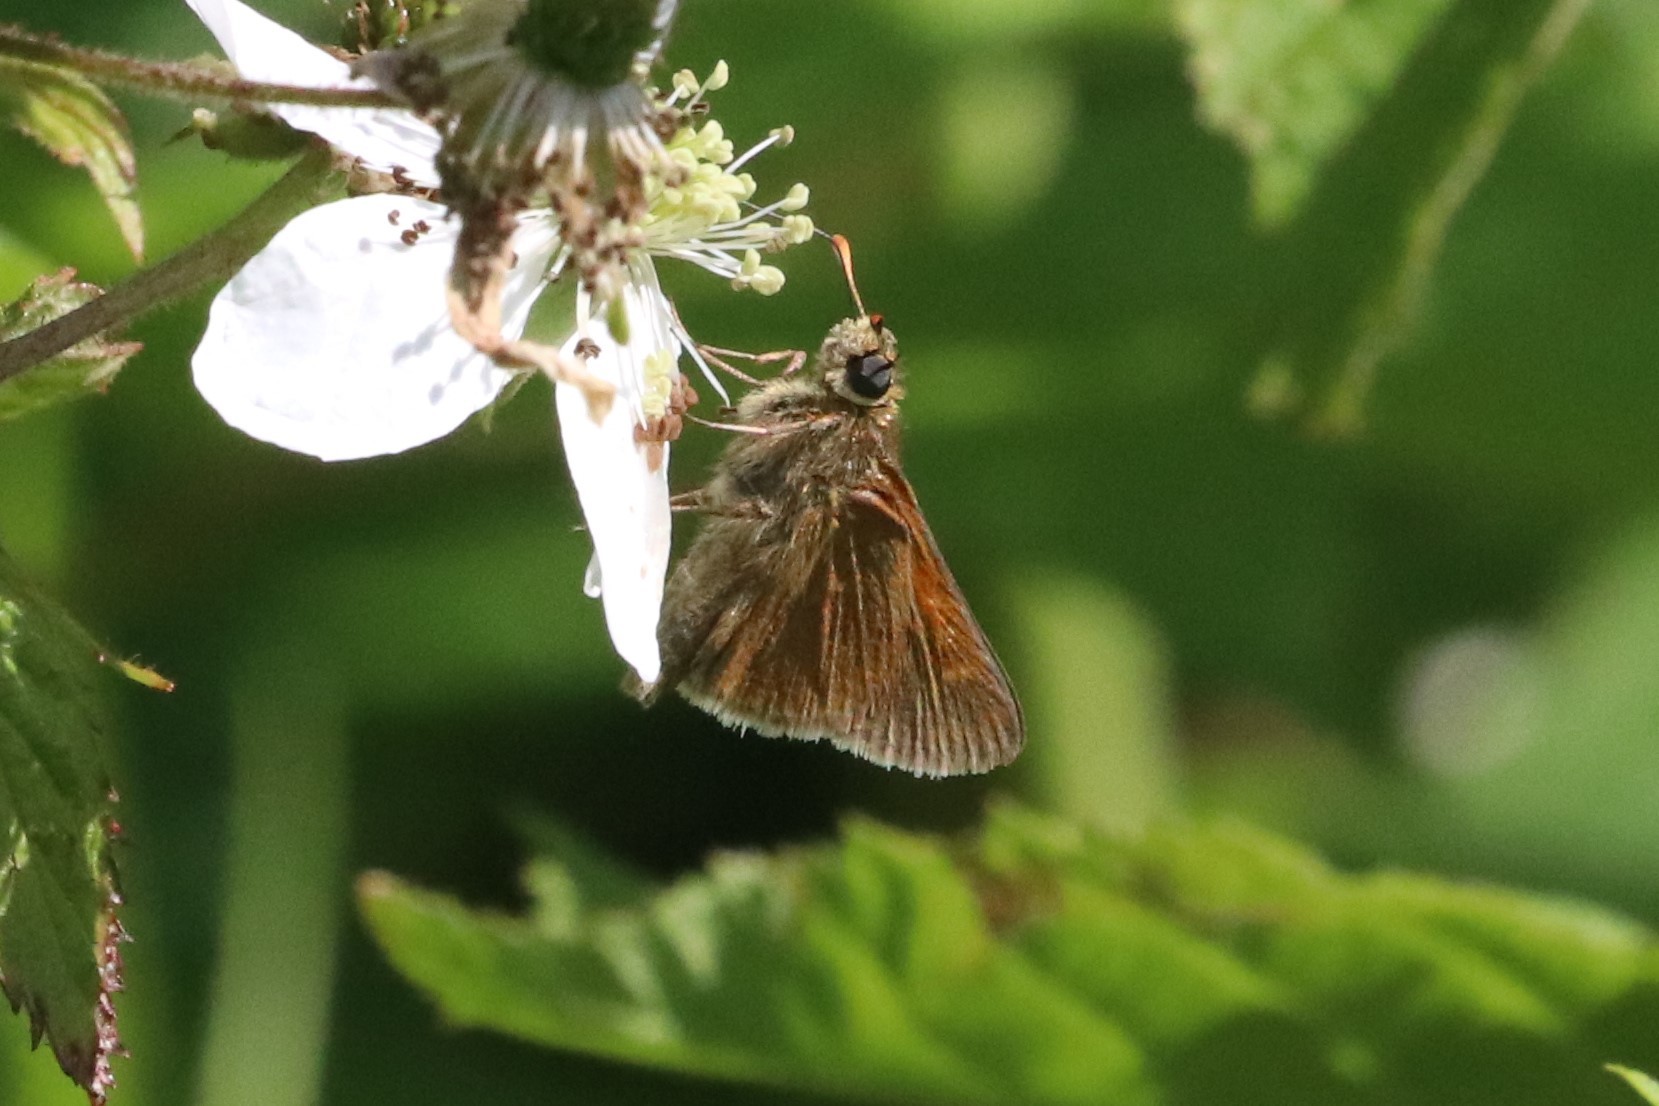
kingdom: Animalia
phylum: Arthropoda
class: Insecta
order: Lepidoptera
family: Hesperiidae
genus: Polites
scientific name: Polites themistocles
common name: Tawny-edged skipper
